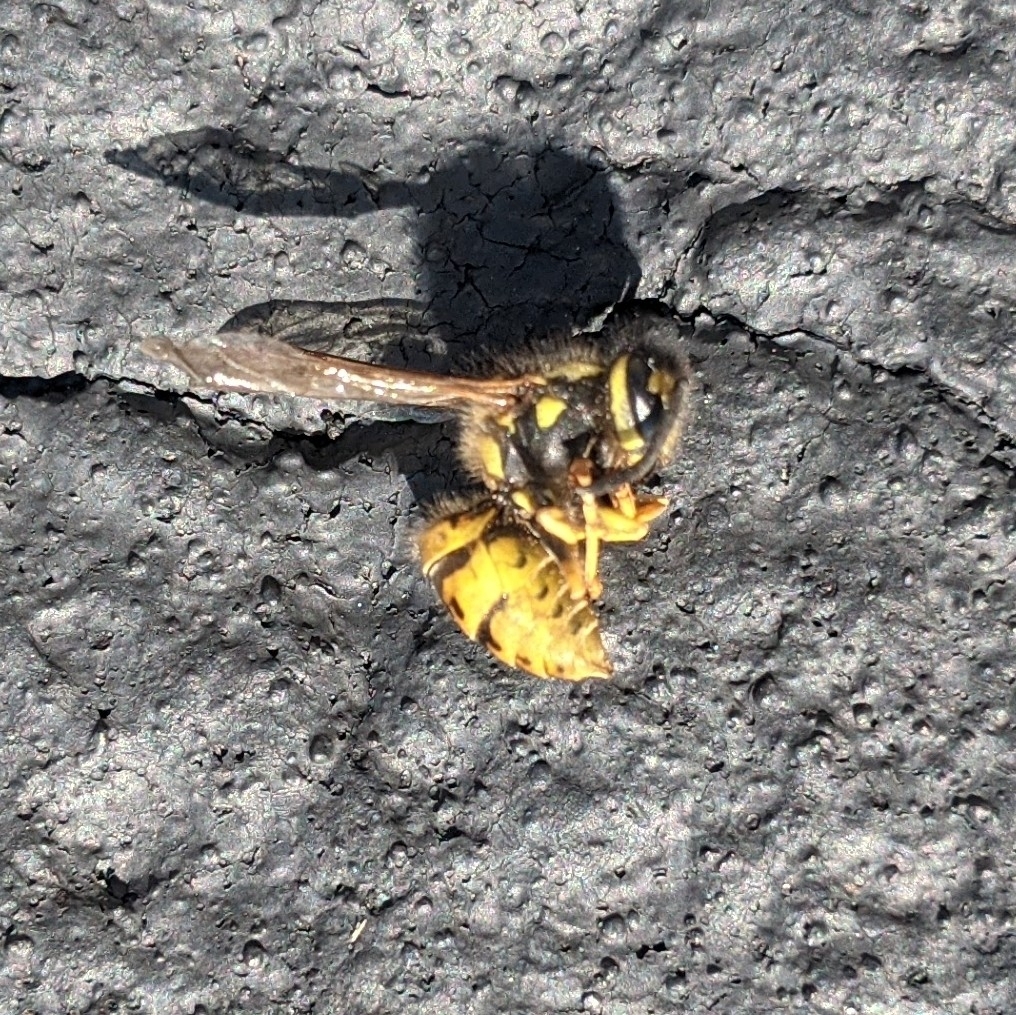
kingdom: Animalia
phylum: Arthropoda
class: Insecta
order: Hymenoptera
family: Vespidae
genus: Vespula
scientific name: Vespula germanica
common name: German wasp
